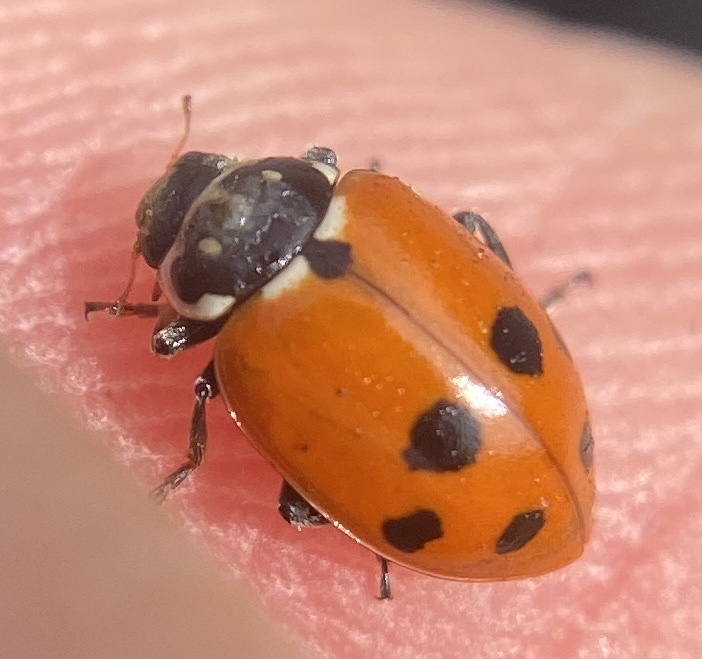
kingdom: Animalia
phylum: Arthropoda
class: Insecta
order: Coleoptera
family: Coccinellidae
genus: Hippodamia
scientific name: Hippodamia variegata
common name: Ladybird beetle
